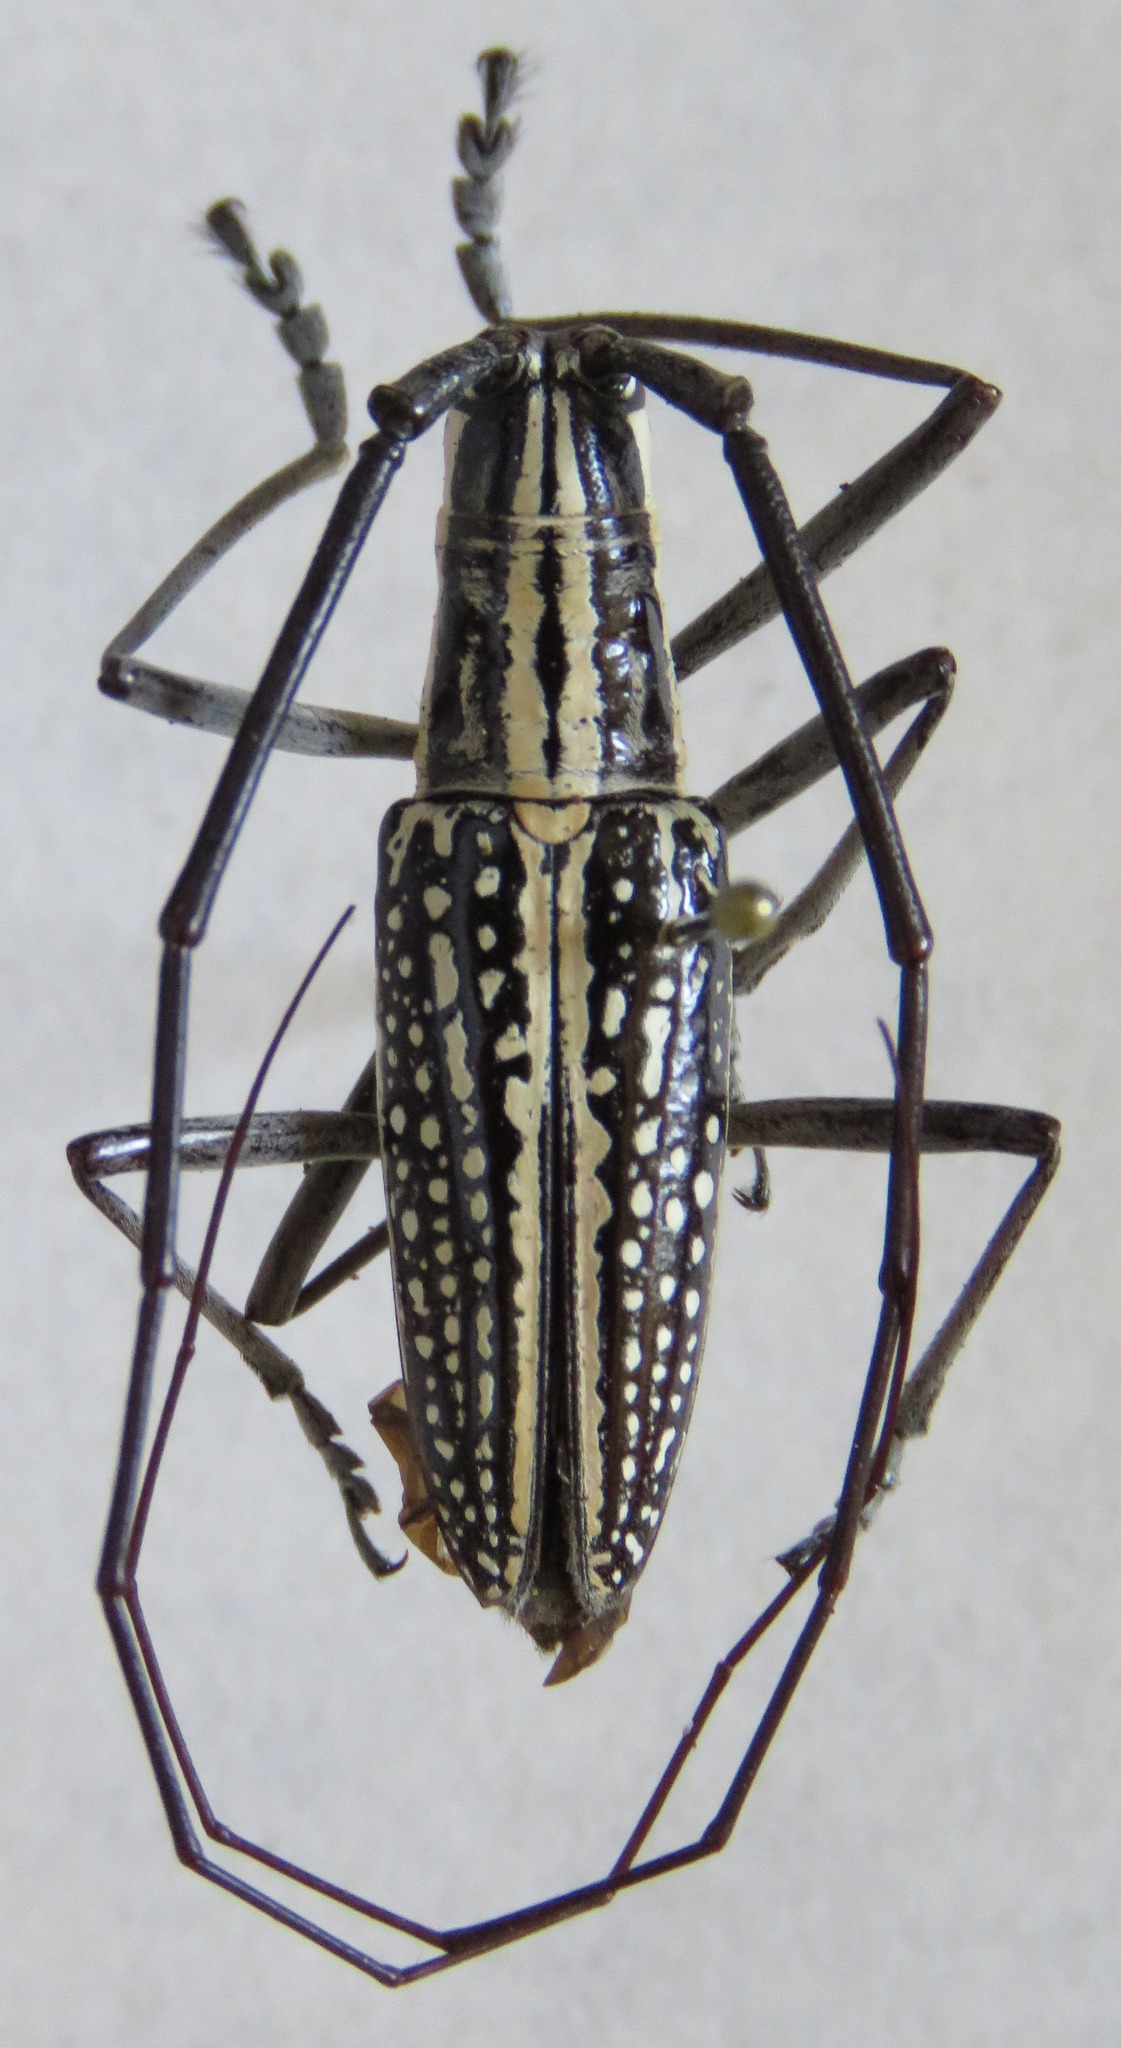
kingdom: Animalia
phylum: Arthropoda
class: Insecta
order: Coleoptera
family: Cerambycidae
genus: Ptychodes
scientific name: Ptychodes taeniotoides
